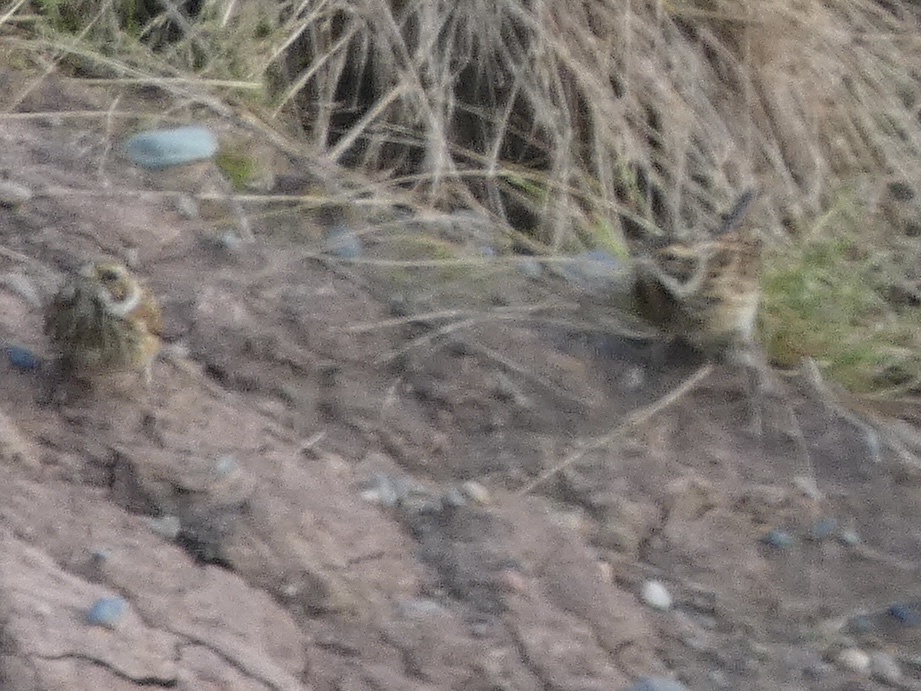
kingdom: Animalia
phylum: Chordata
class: Aves
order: Passeriformes
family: Emberizidae
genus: Emberiza
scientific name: Emberiza schoeniclus
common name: Reed bunting
